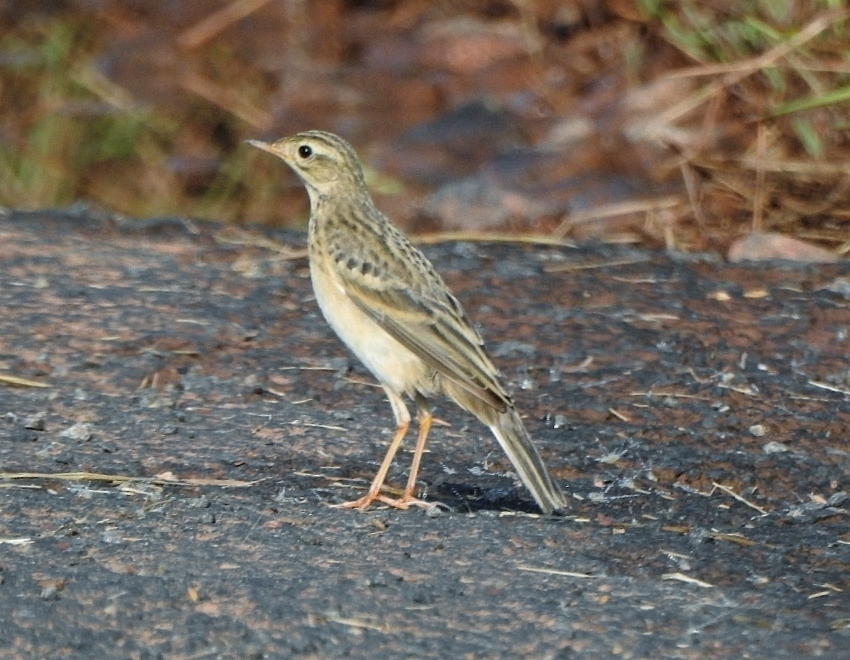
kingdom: Animalia
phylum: Chordata
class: Aves
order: Passeriformes
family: Motacillidae
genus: Anthus
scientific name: Anthus godlewskii
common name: Blyth's pipit
